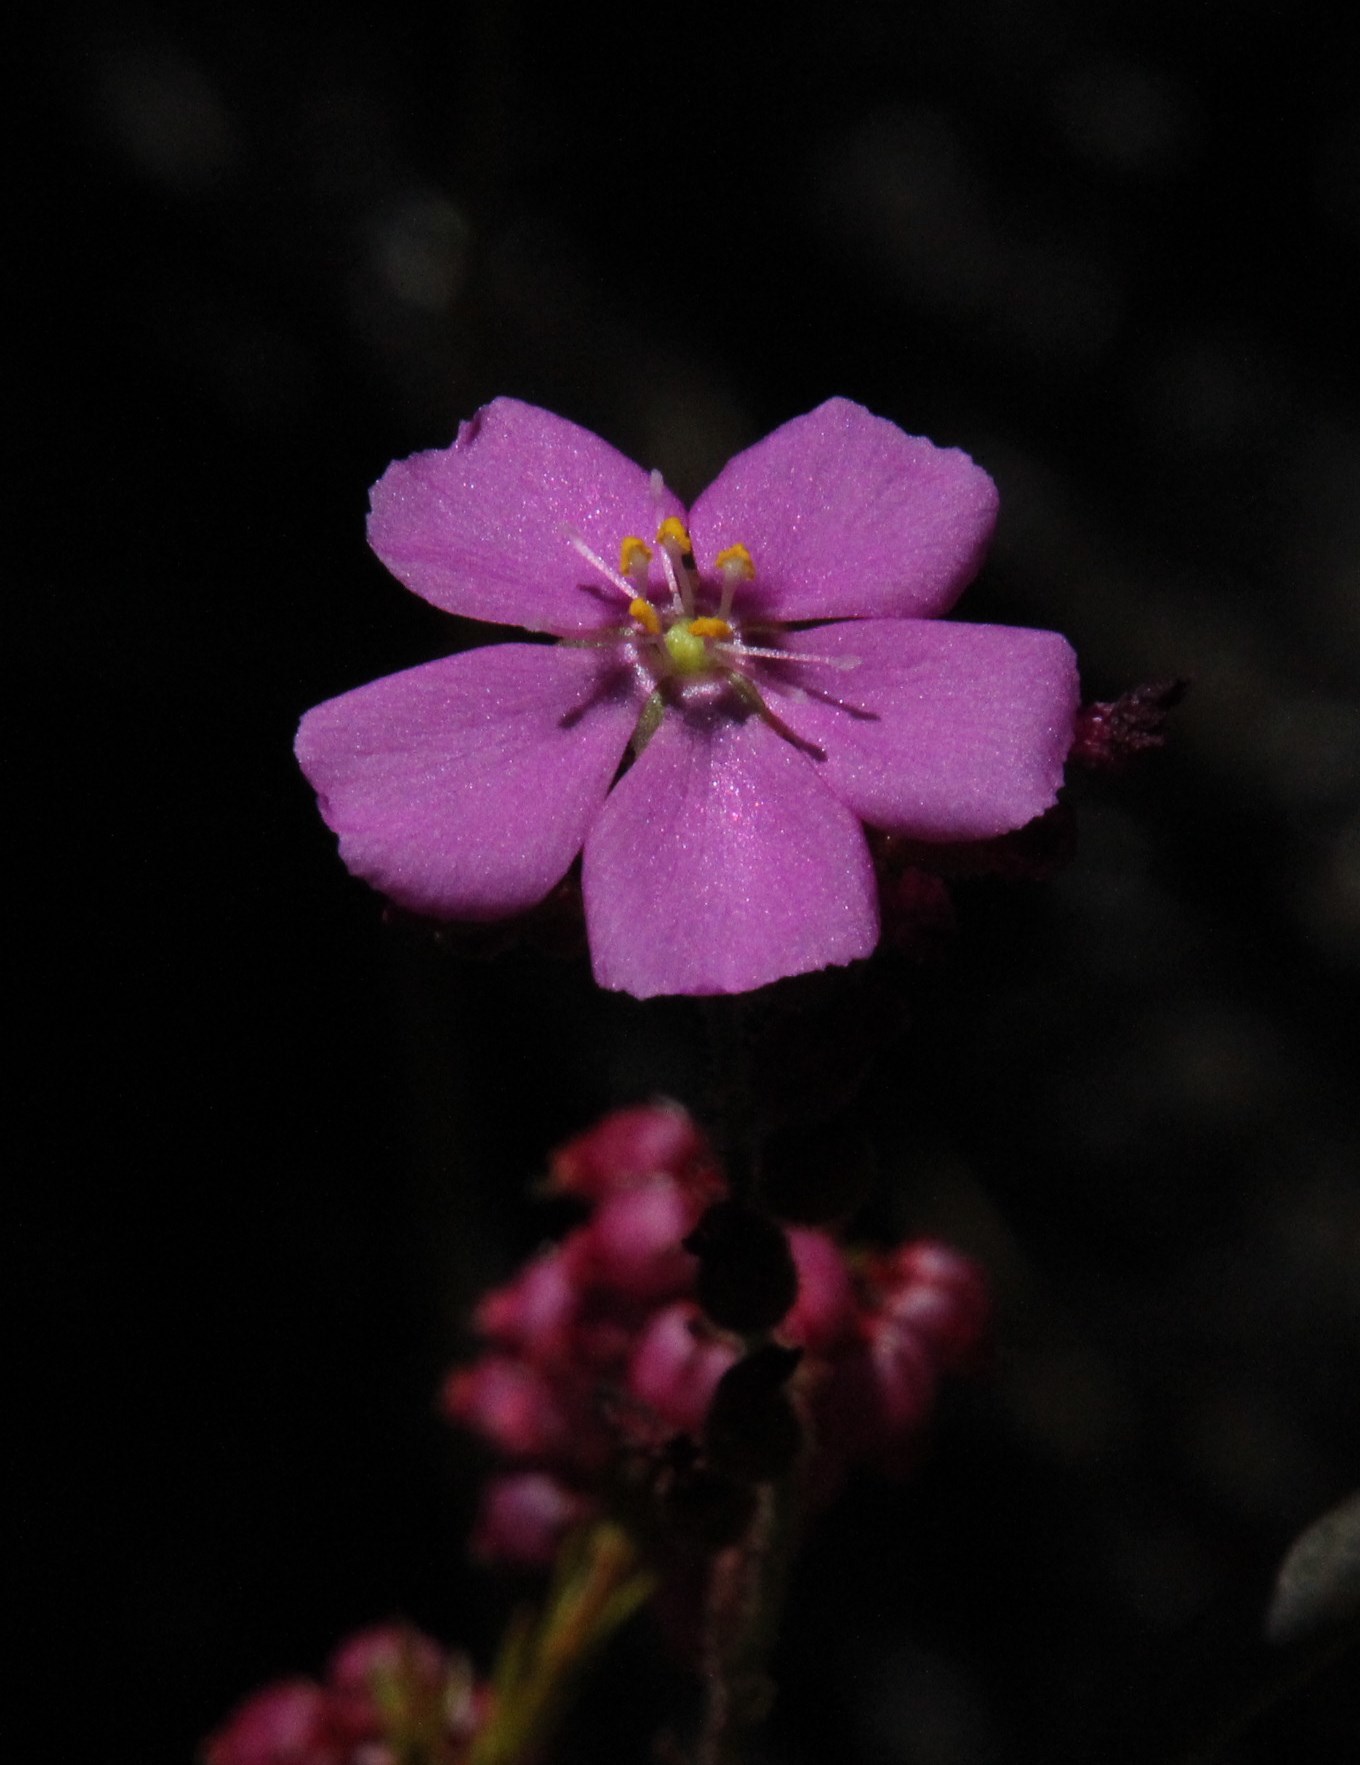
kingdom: Plantae
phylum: Tracheophyta
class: Magnoliopsida
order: Caryophyllales
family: Droseraceae
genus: Drosera
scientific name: Drosera capensis
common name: Cape sundew
